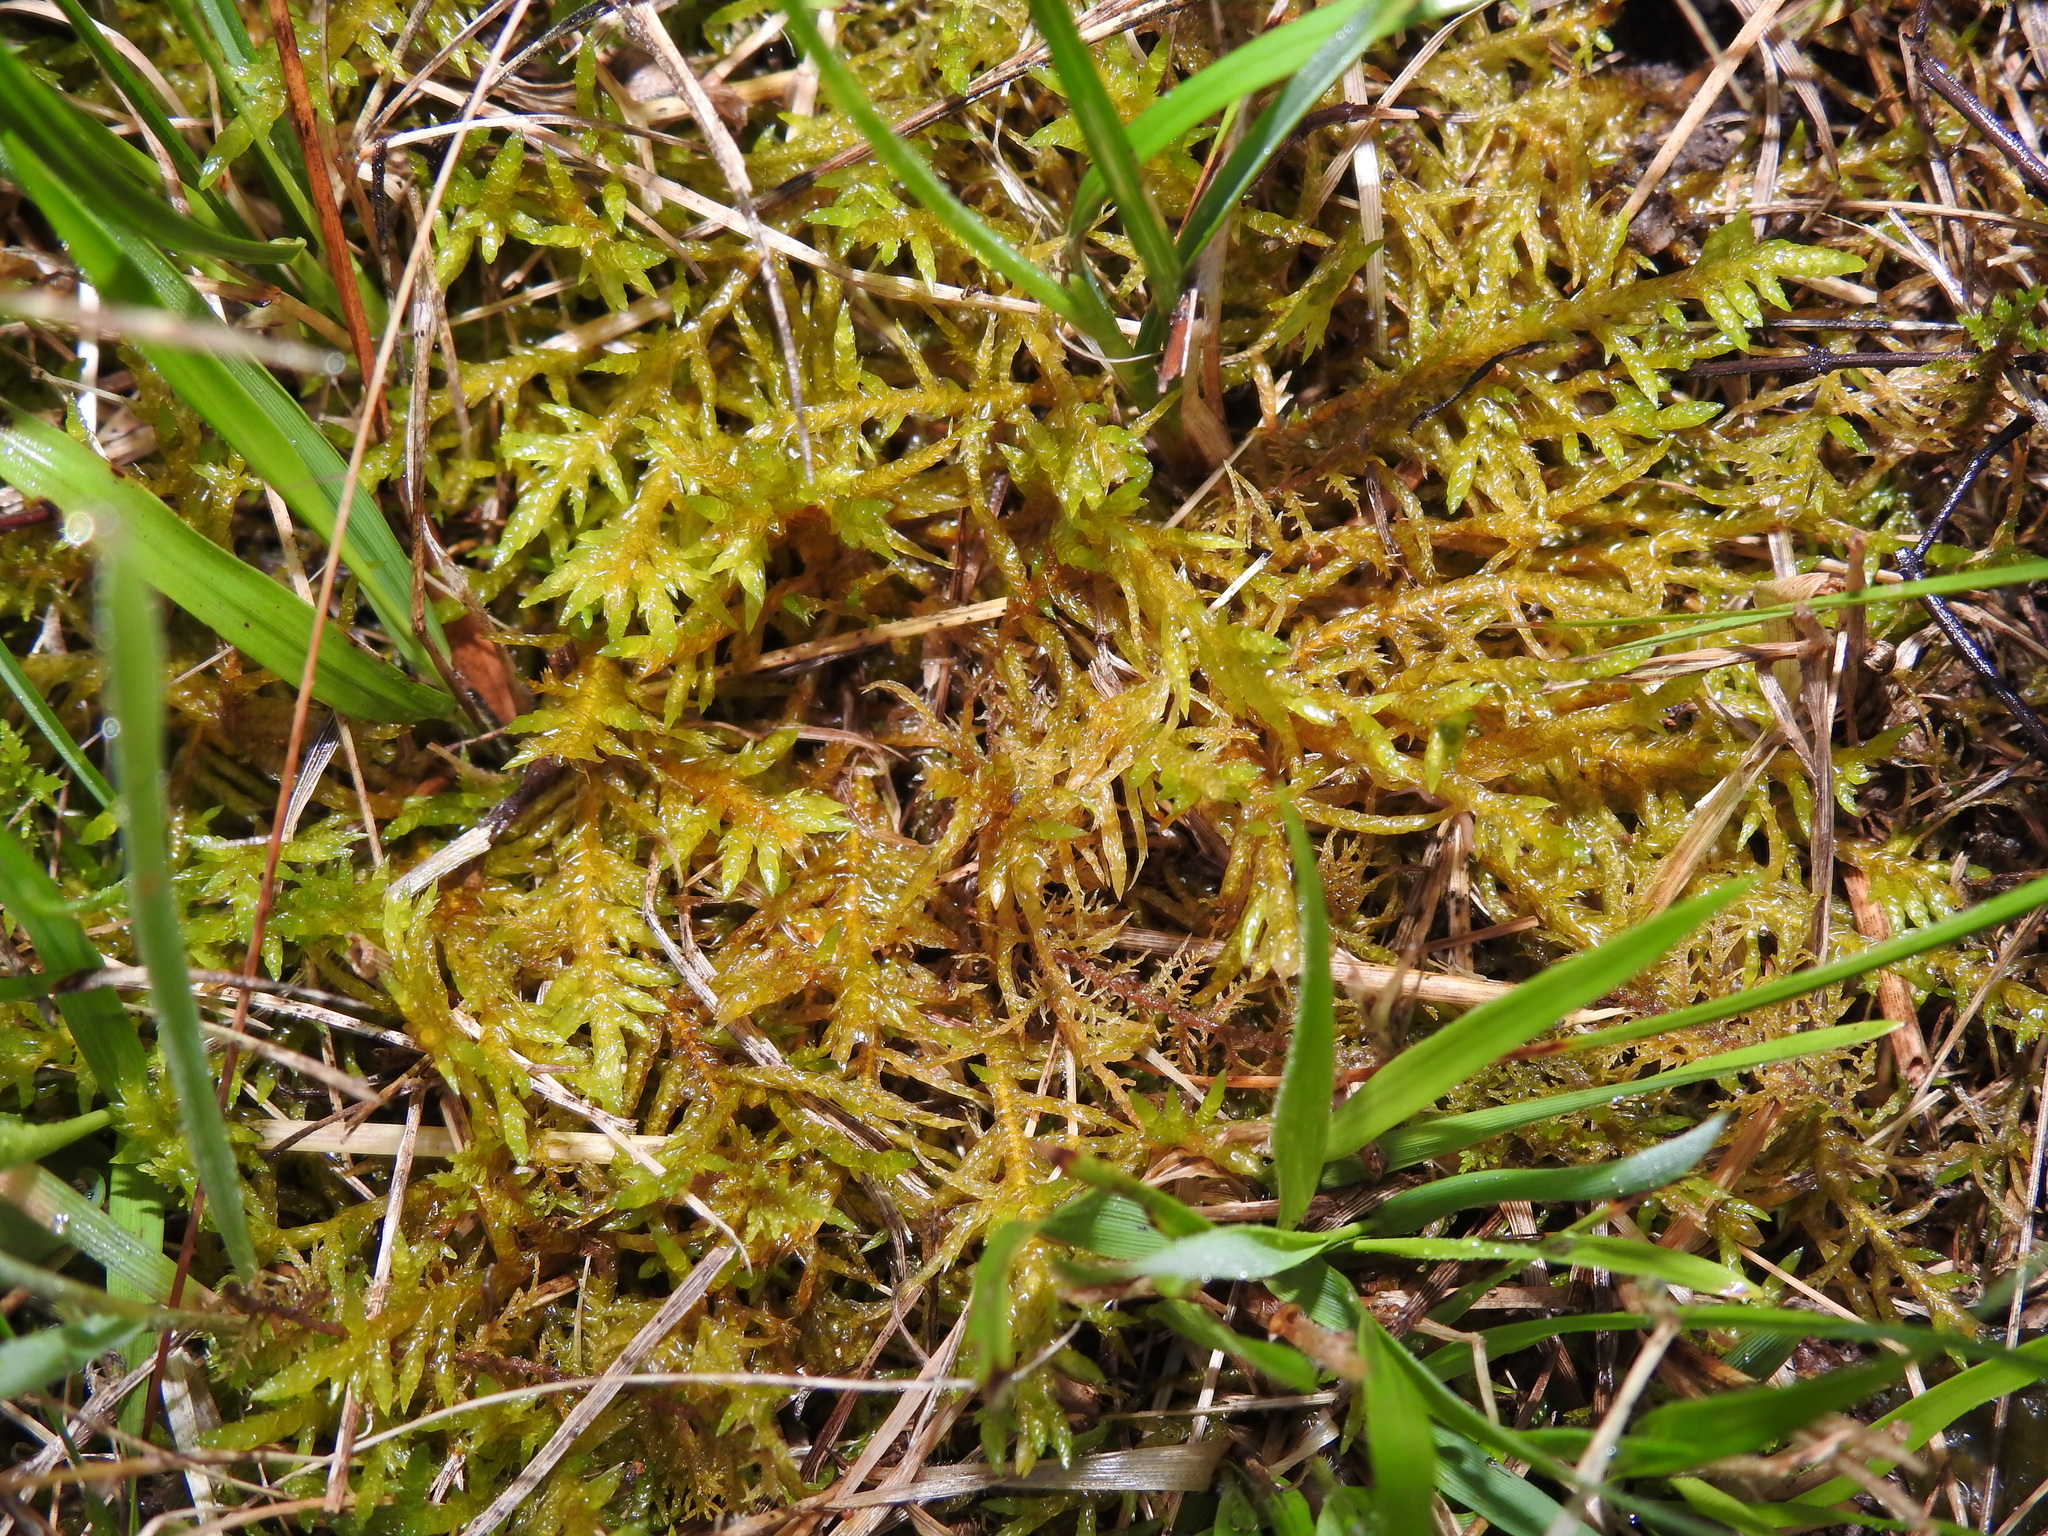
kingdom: Plantae
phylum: Bryophyta
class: Bryopsida
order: Hypnales
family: Entodontaceae
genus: Entodon
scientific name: Entodon concinnus
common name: Montagne's cylinder-moss
